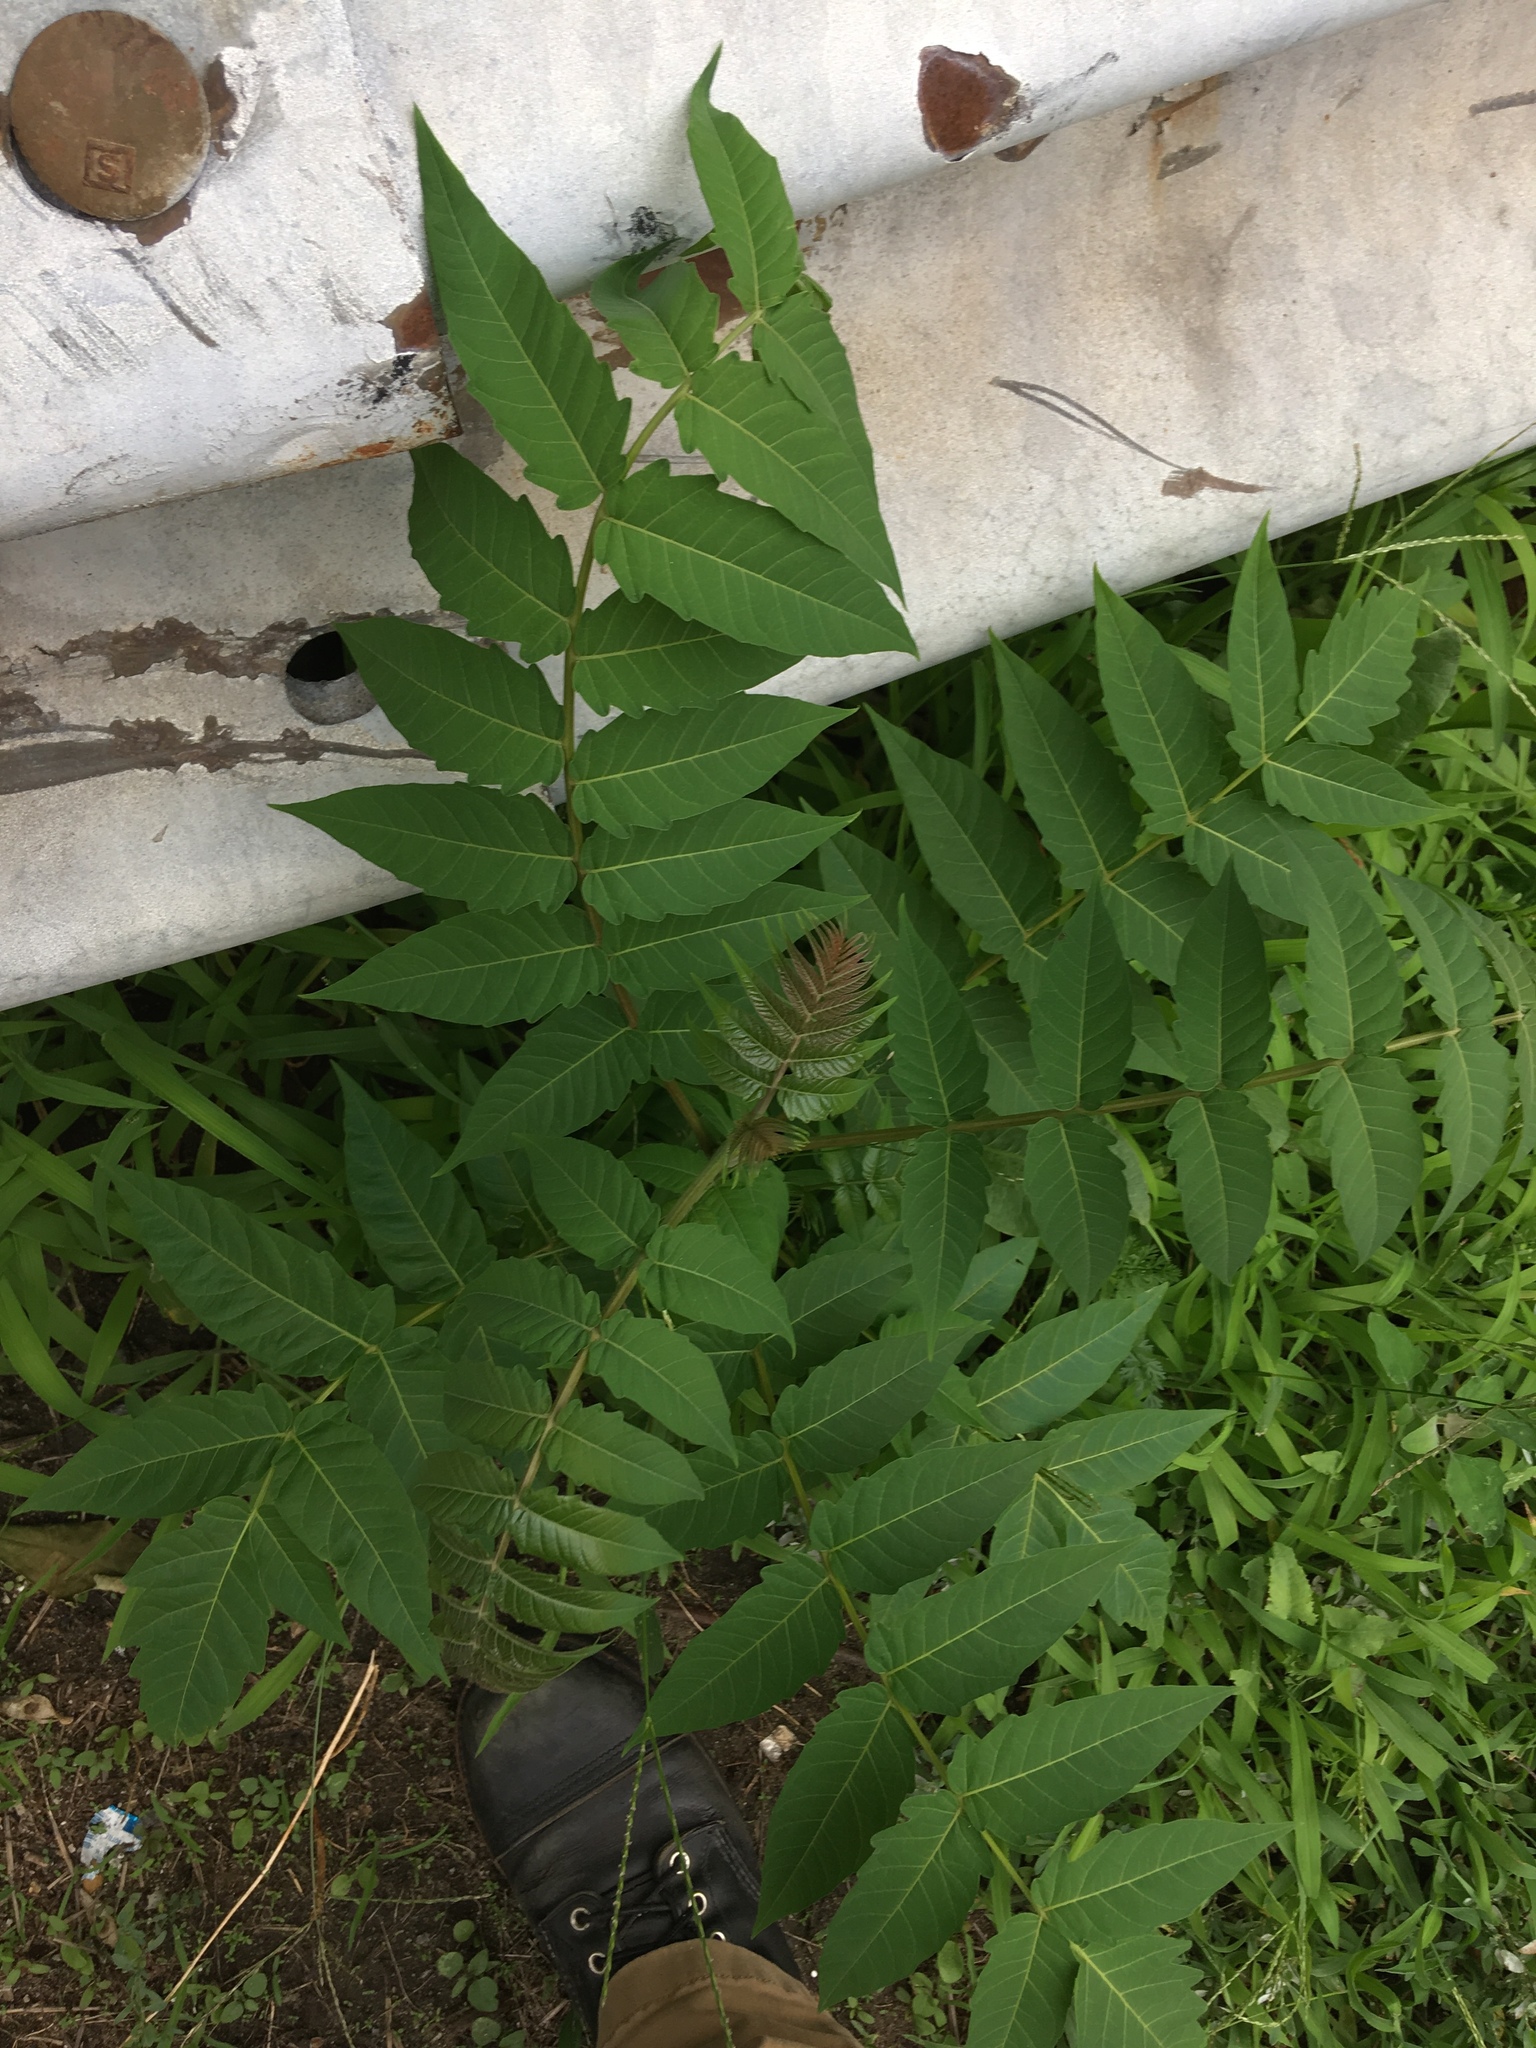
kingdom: Plantae
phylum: Tracheophyta
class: Magnoliopsida
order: Sapindales
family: Simaroubaceae
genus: Ailanthus
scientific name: Ailanthus altissima
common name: Tree-of-heaven
